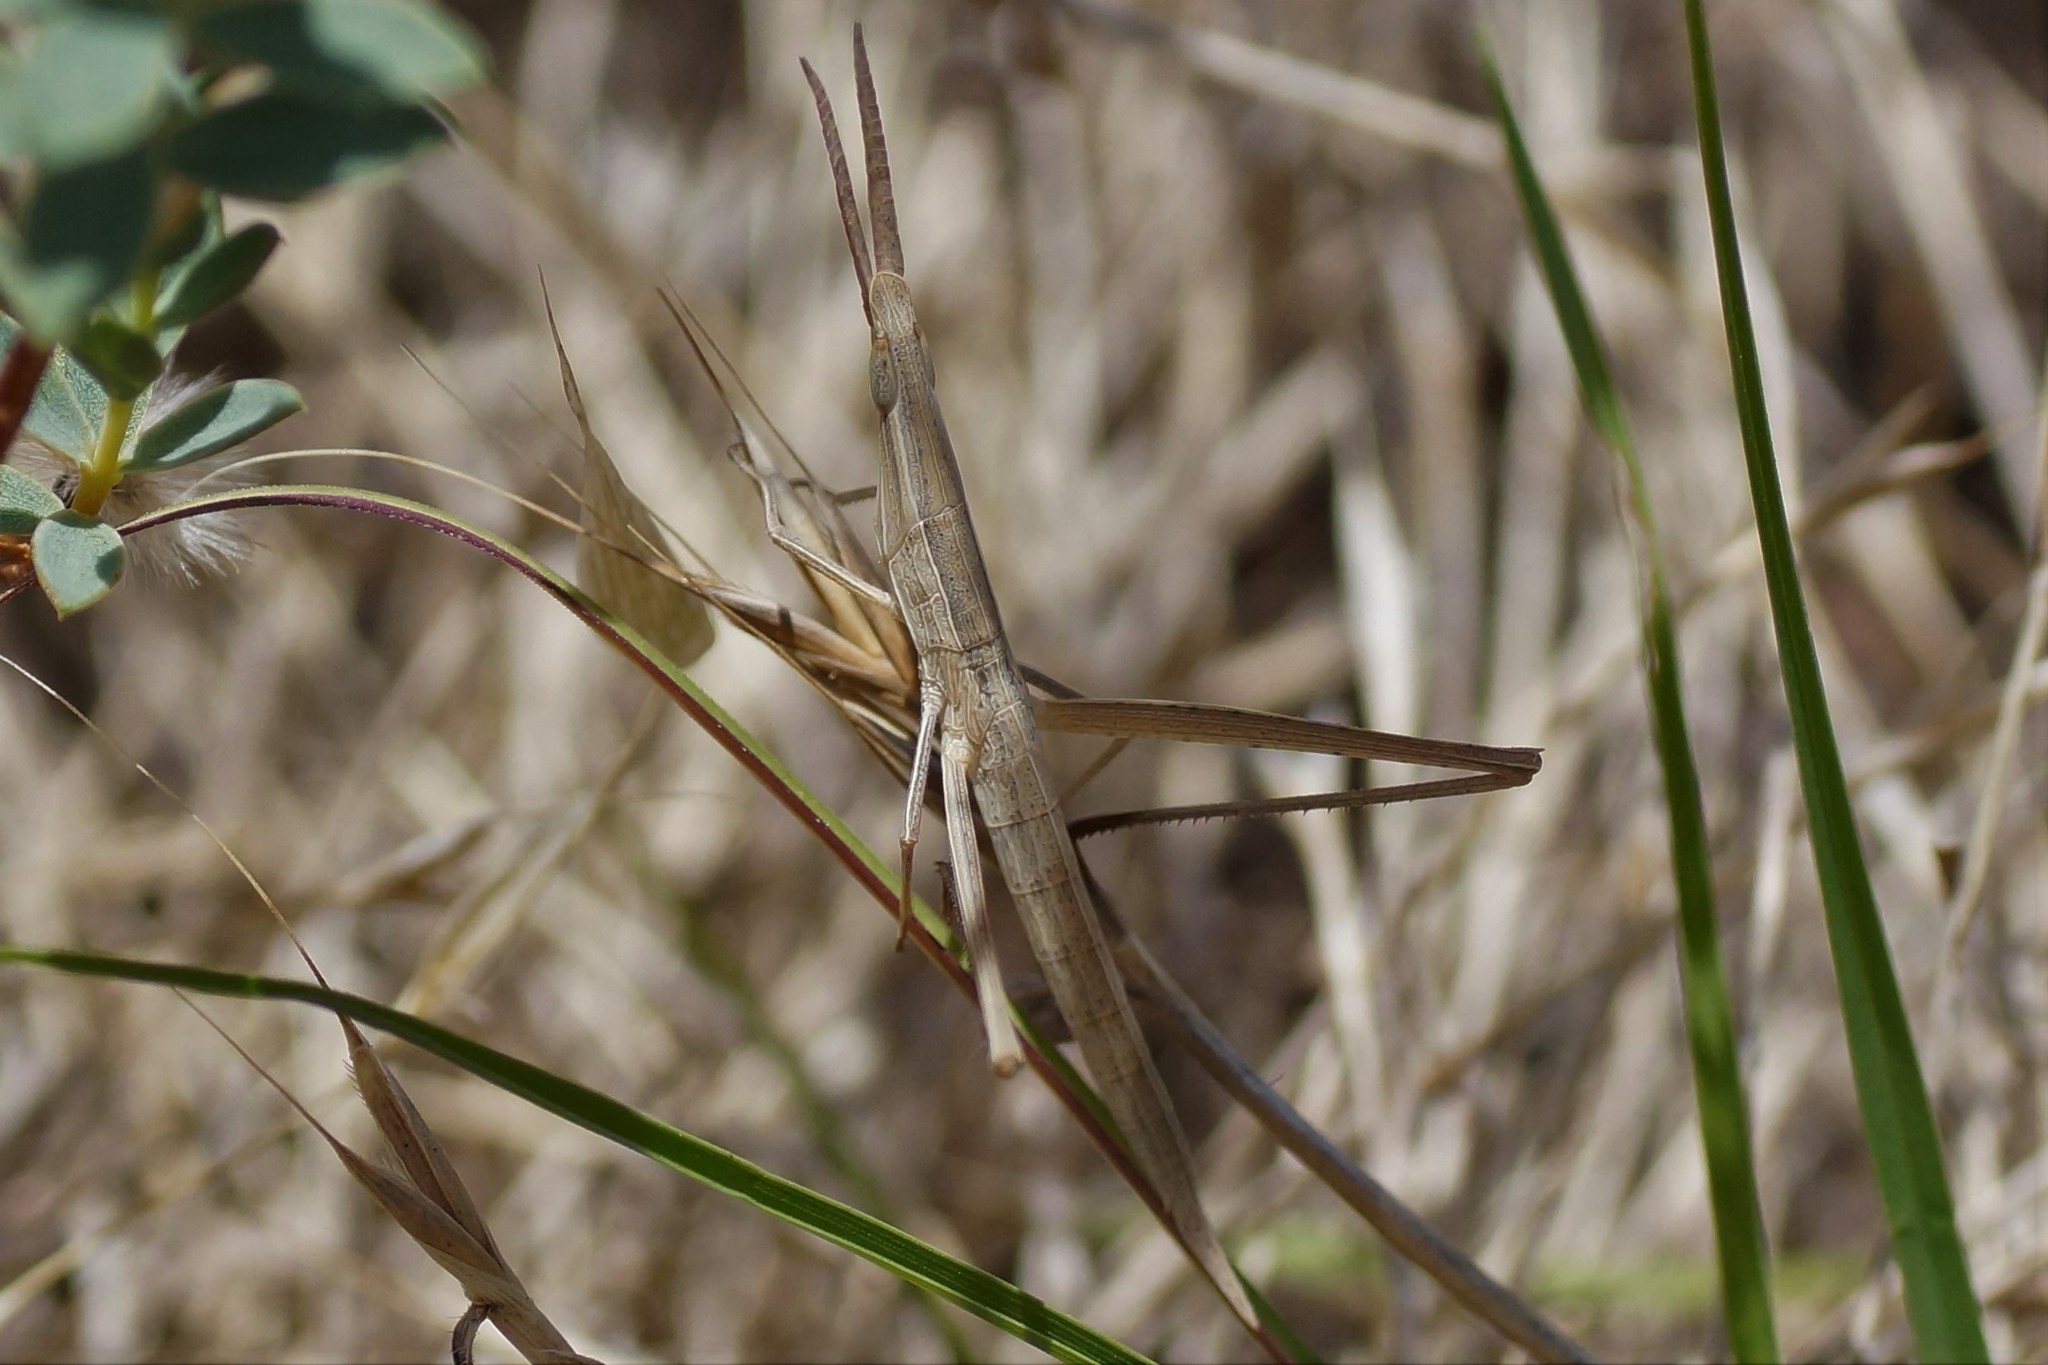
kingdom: Animalia
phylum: Arthropoda
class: Insecta
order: Orthoptera
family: Acrididae
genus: Acrida
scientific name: Acrida conica
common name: Giant green slantface
